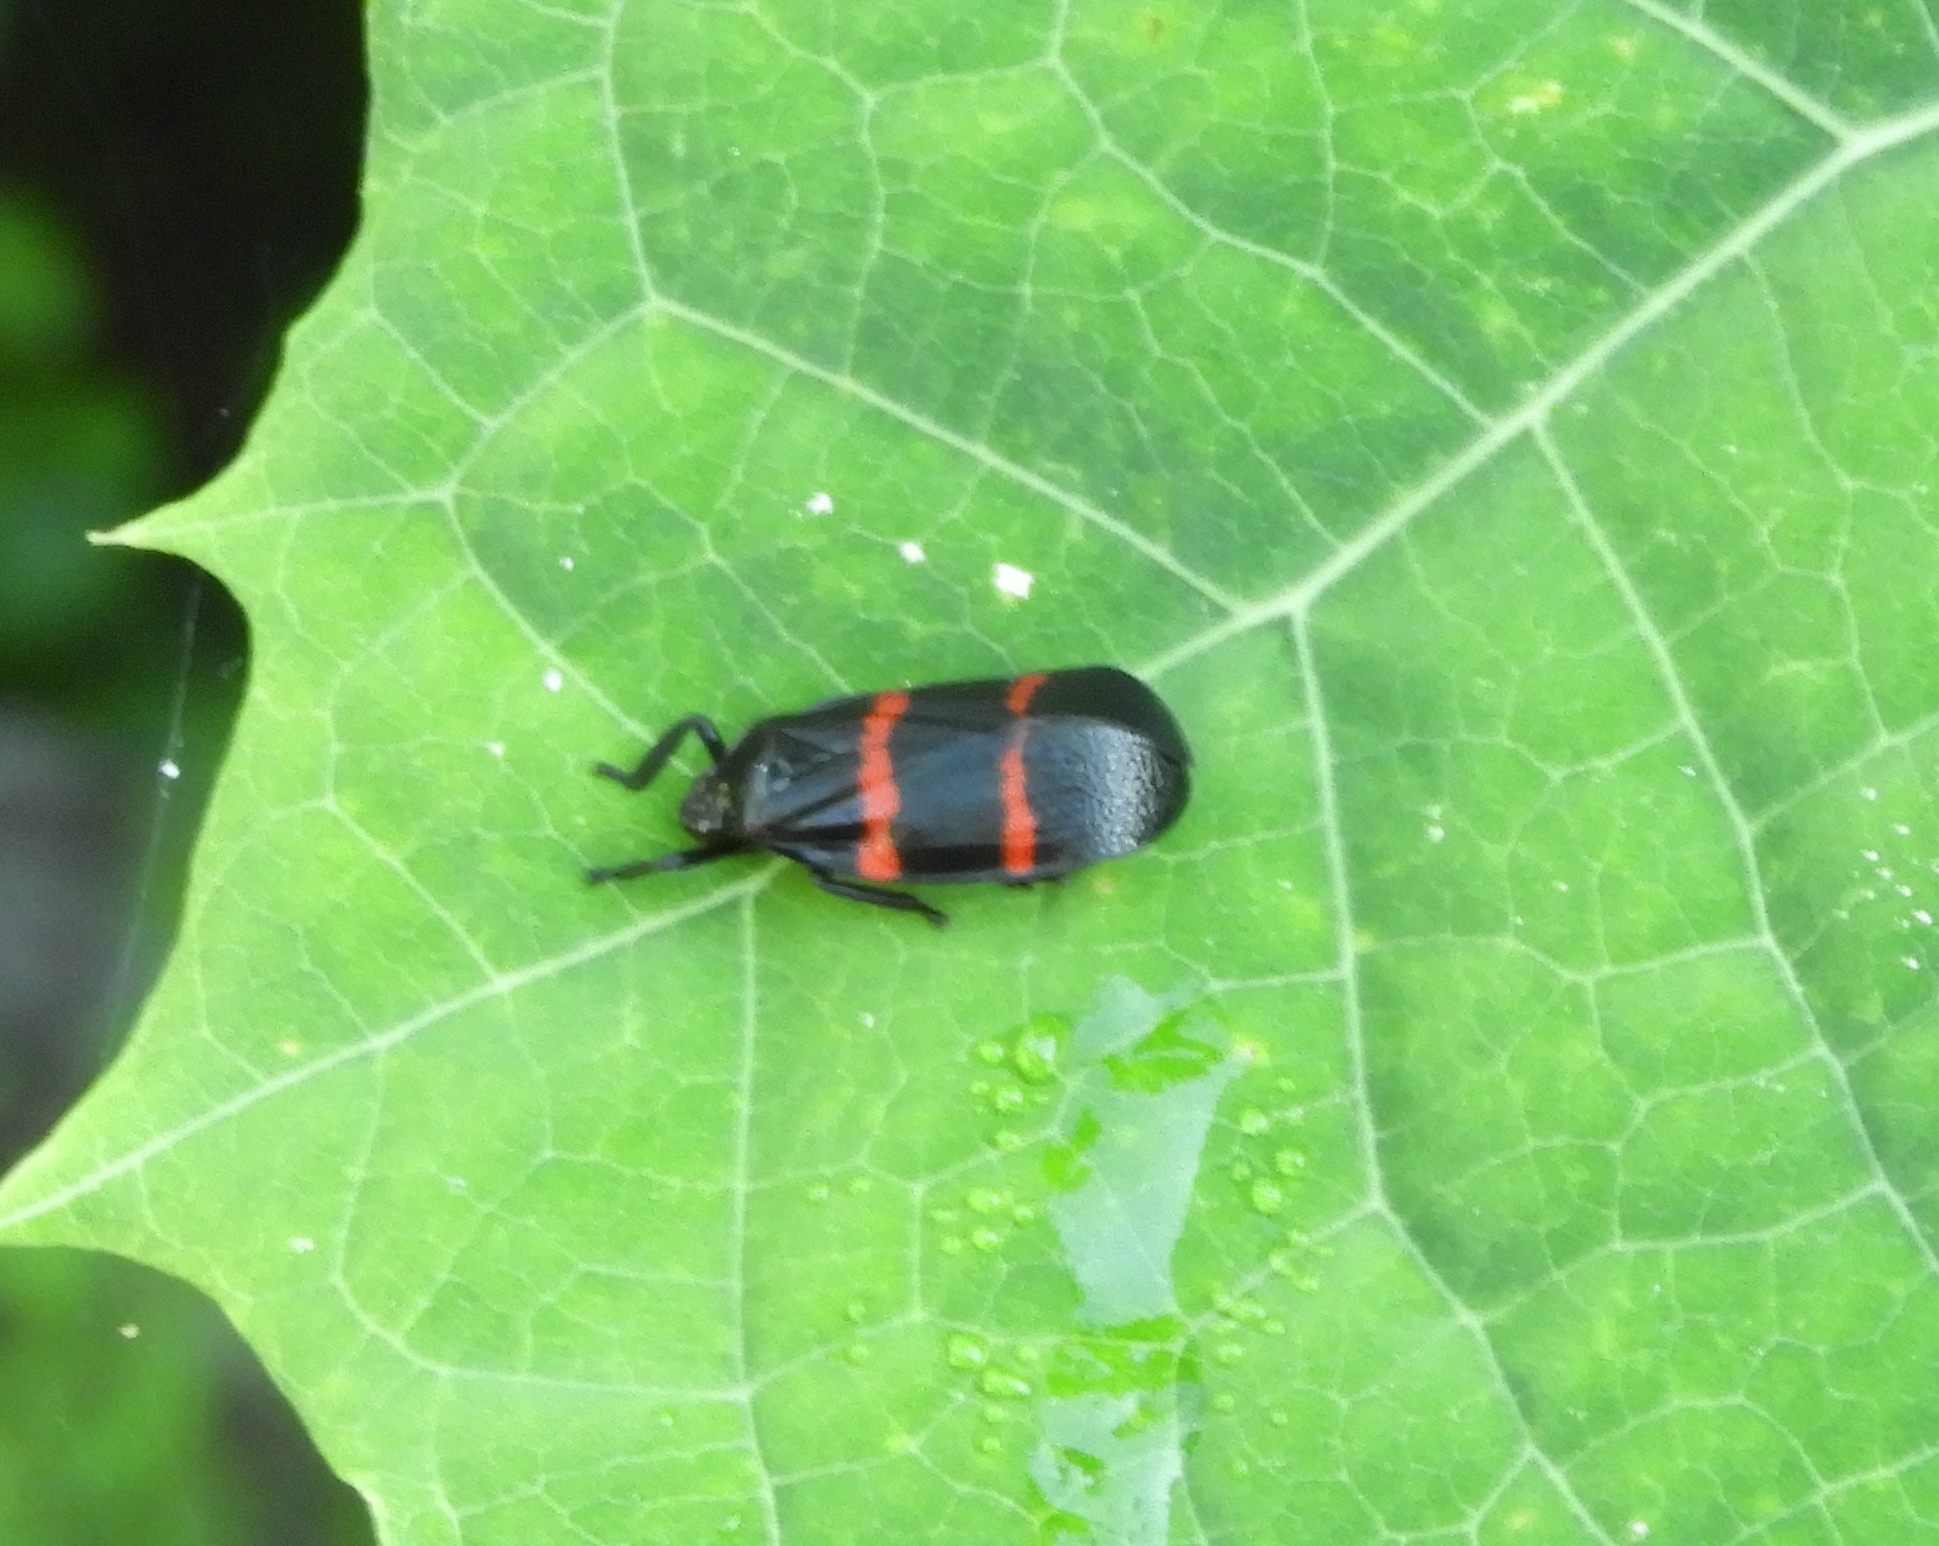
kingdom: Animalia
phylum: Arthropoda
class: Insecta
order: Hemiptera
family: Cercopidae
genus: Huaina
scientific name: Huaina inca
